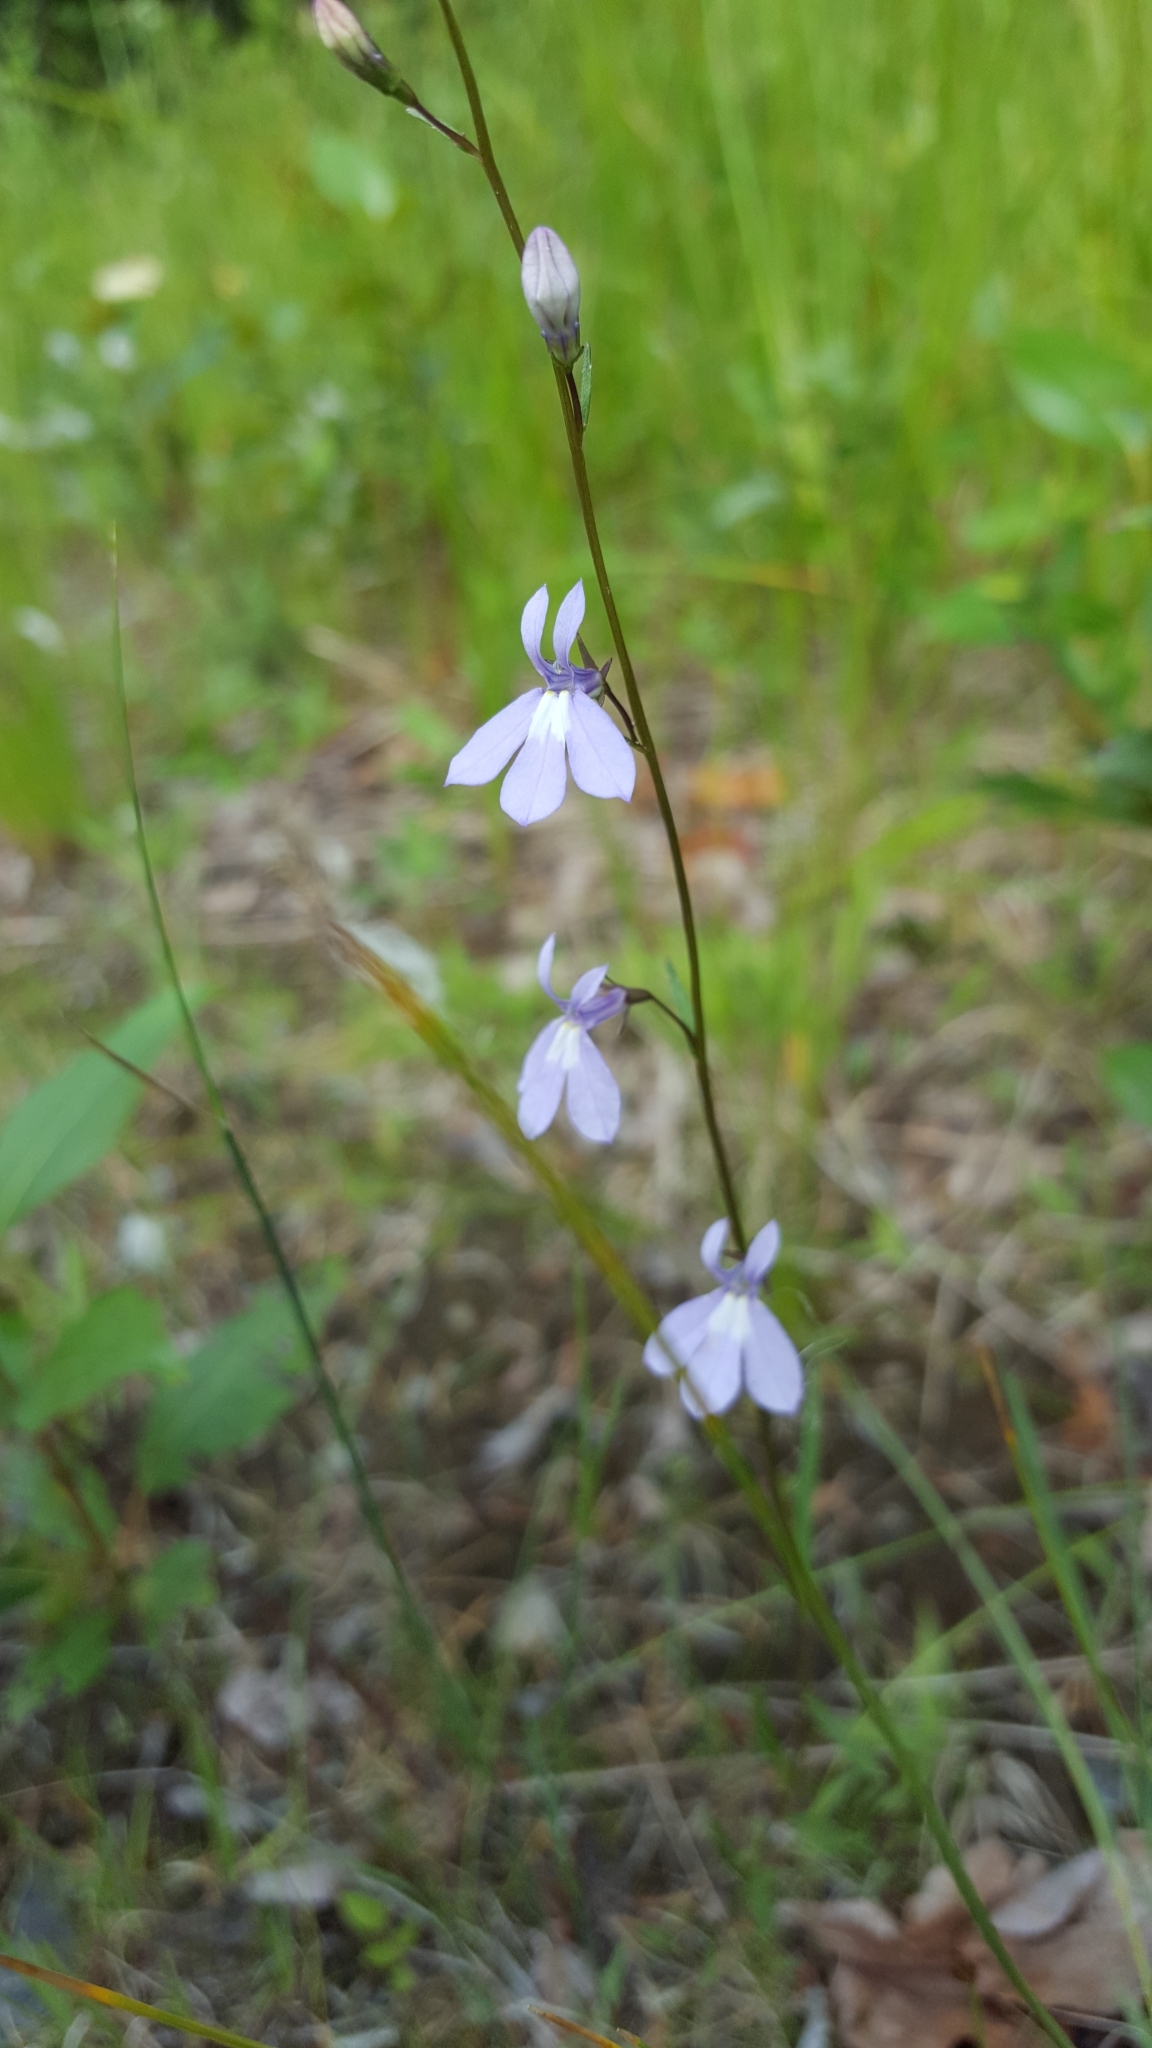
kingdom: Plantae
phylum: Tracheophyta
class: Magnoliopsida
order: Asterales
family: Campanulaceae
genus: Lobelia
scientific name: Lobelia kalmii
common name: Kalm's lobelia
